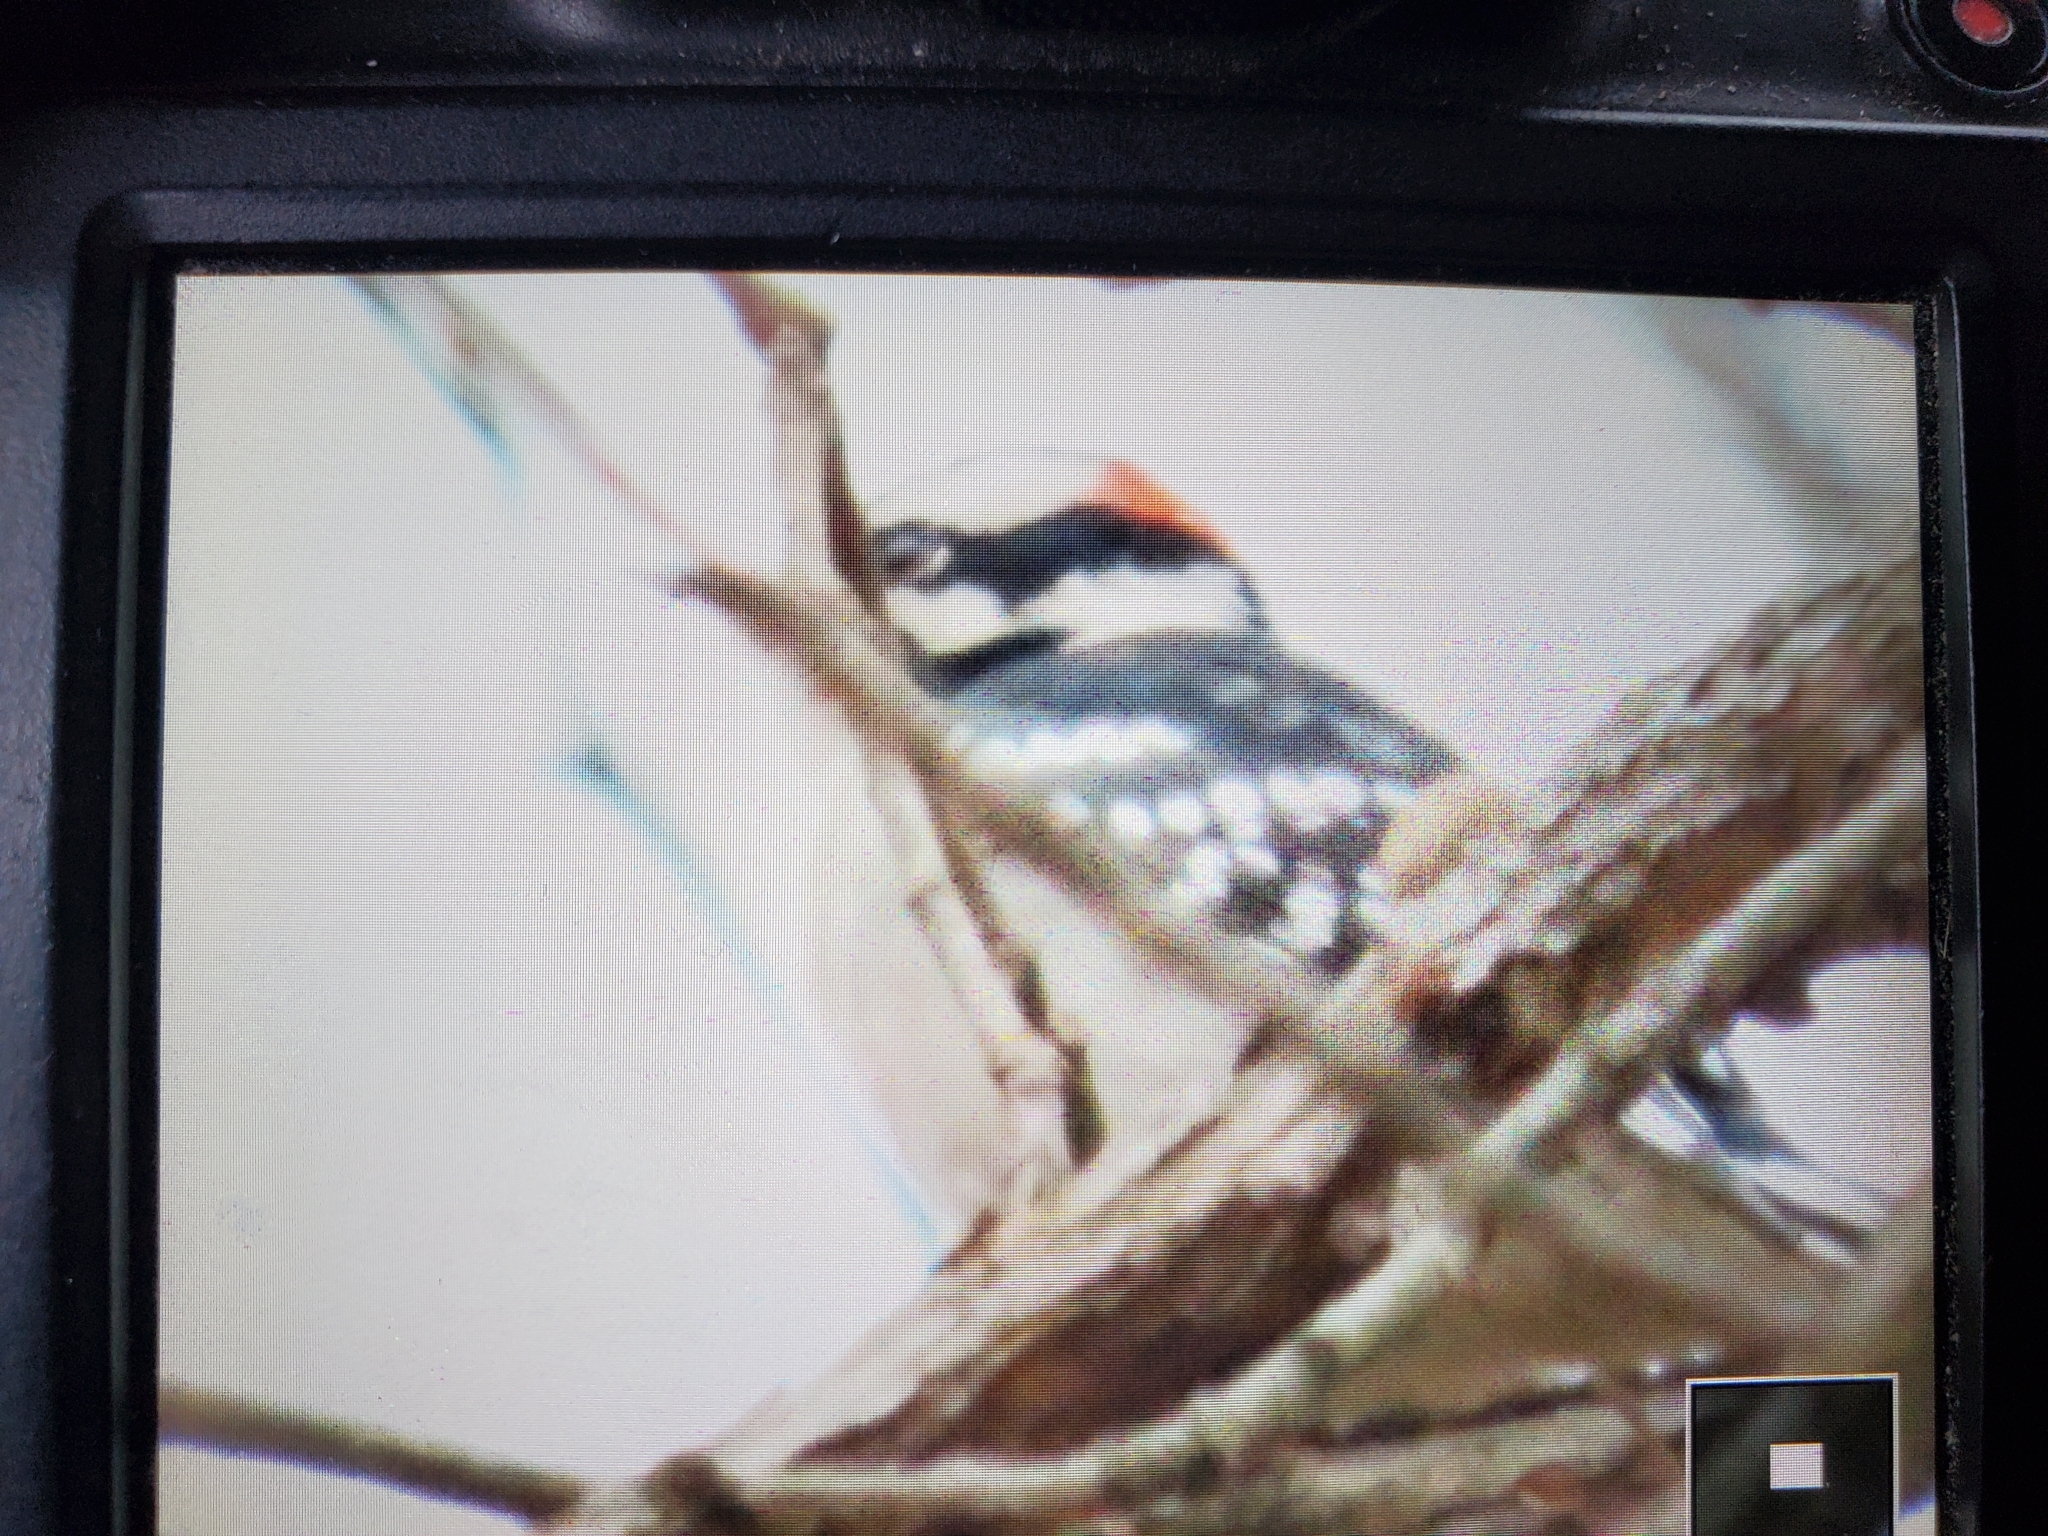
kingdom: Animalia
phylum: Chordata
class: Aves
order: Piciformes
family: Picidae
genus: Dryobates
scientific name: Dryobates pubescens
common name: Downy woodpecker
